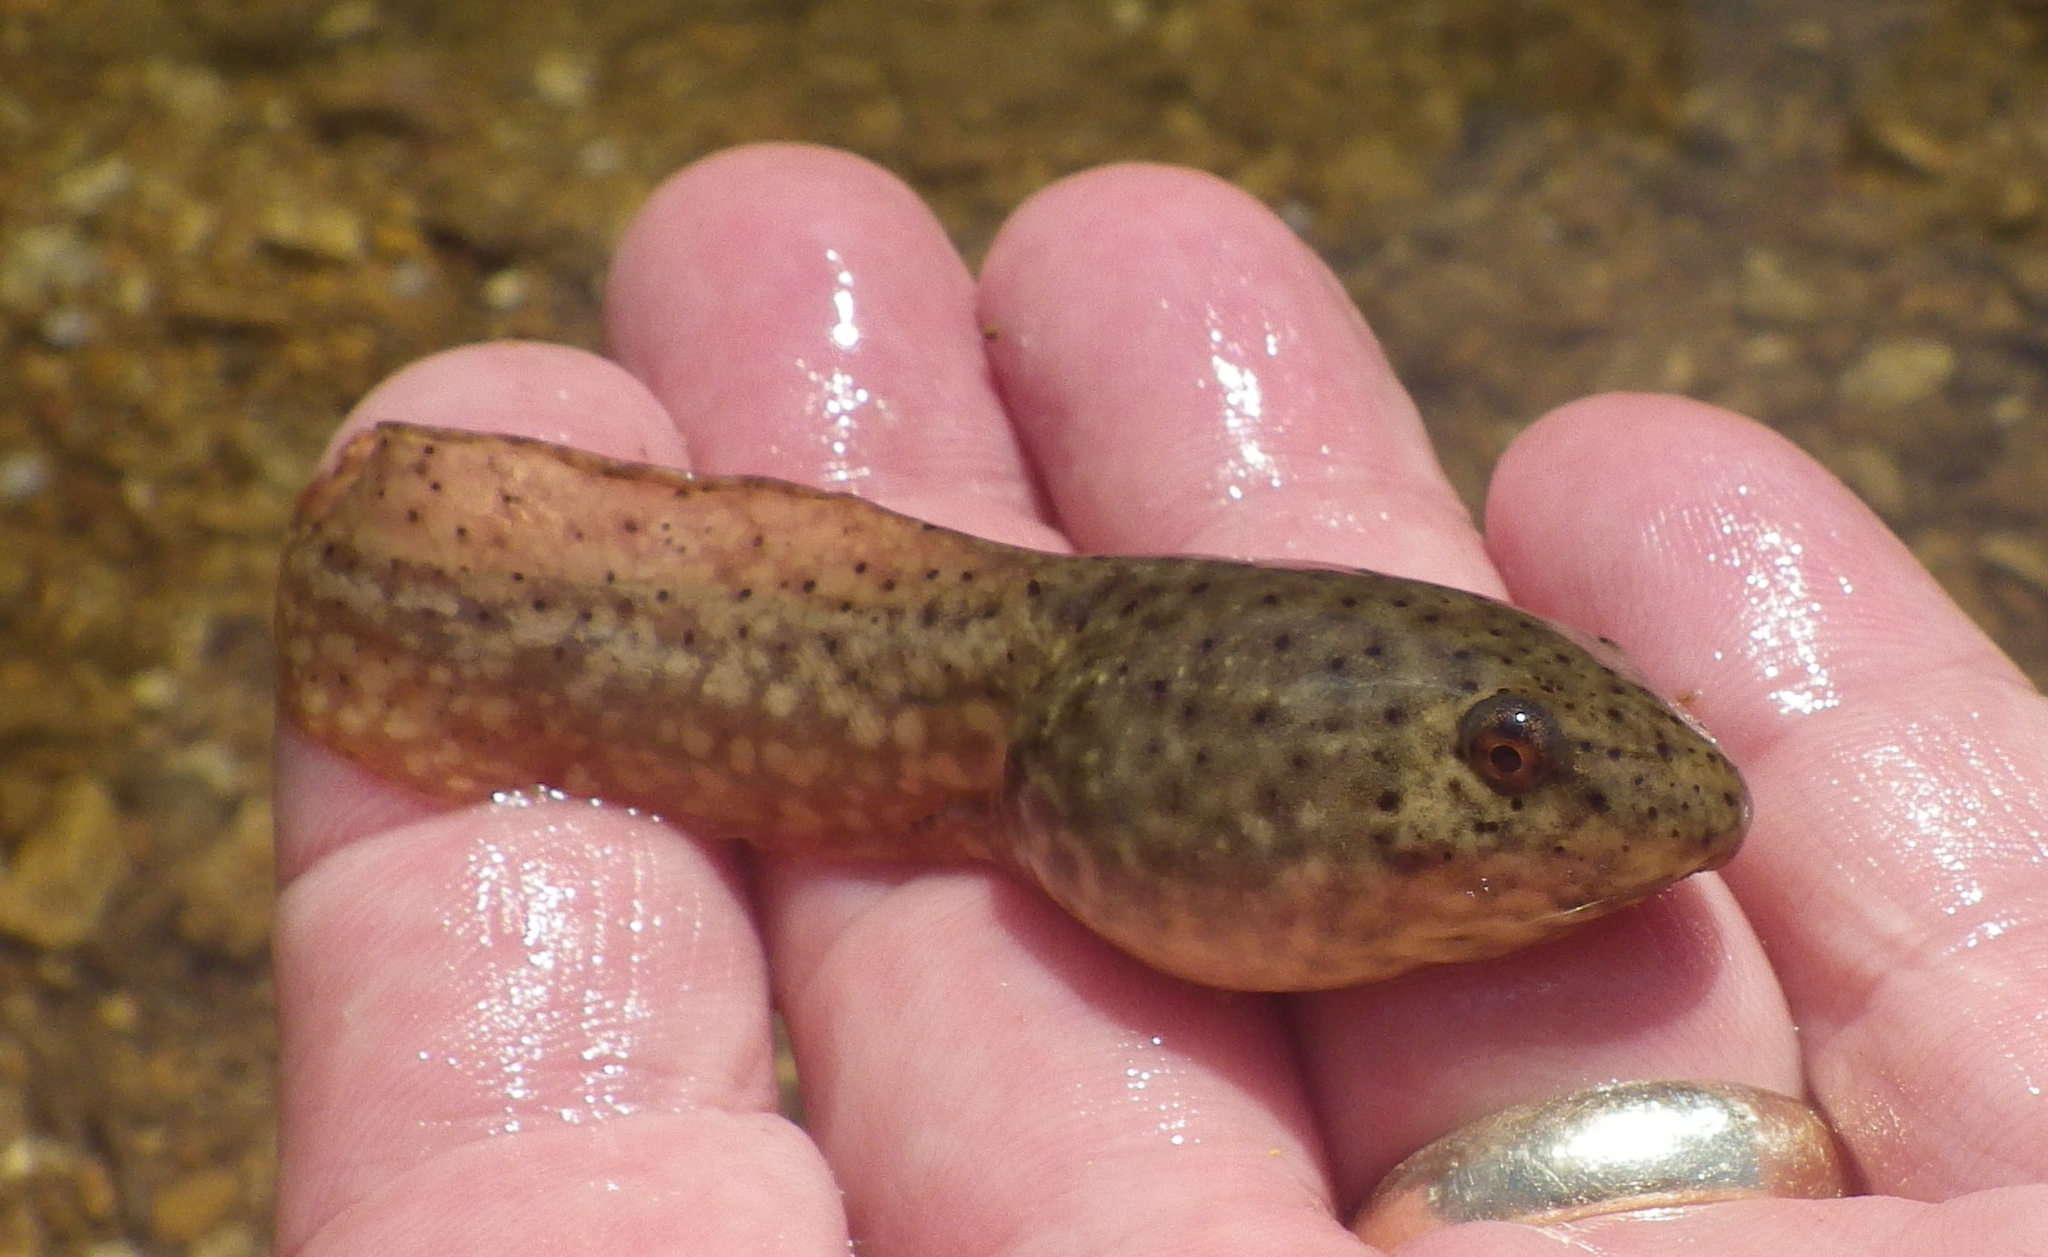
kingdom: Animalia
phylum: Chordata
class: Amphibia
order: Anura
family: Ranidae
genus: Lithobates
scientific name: Lithobates catesbeianus
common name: American bullfrog
